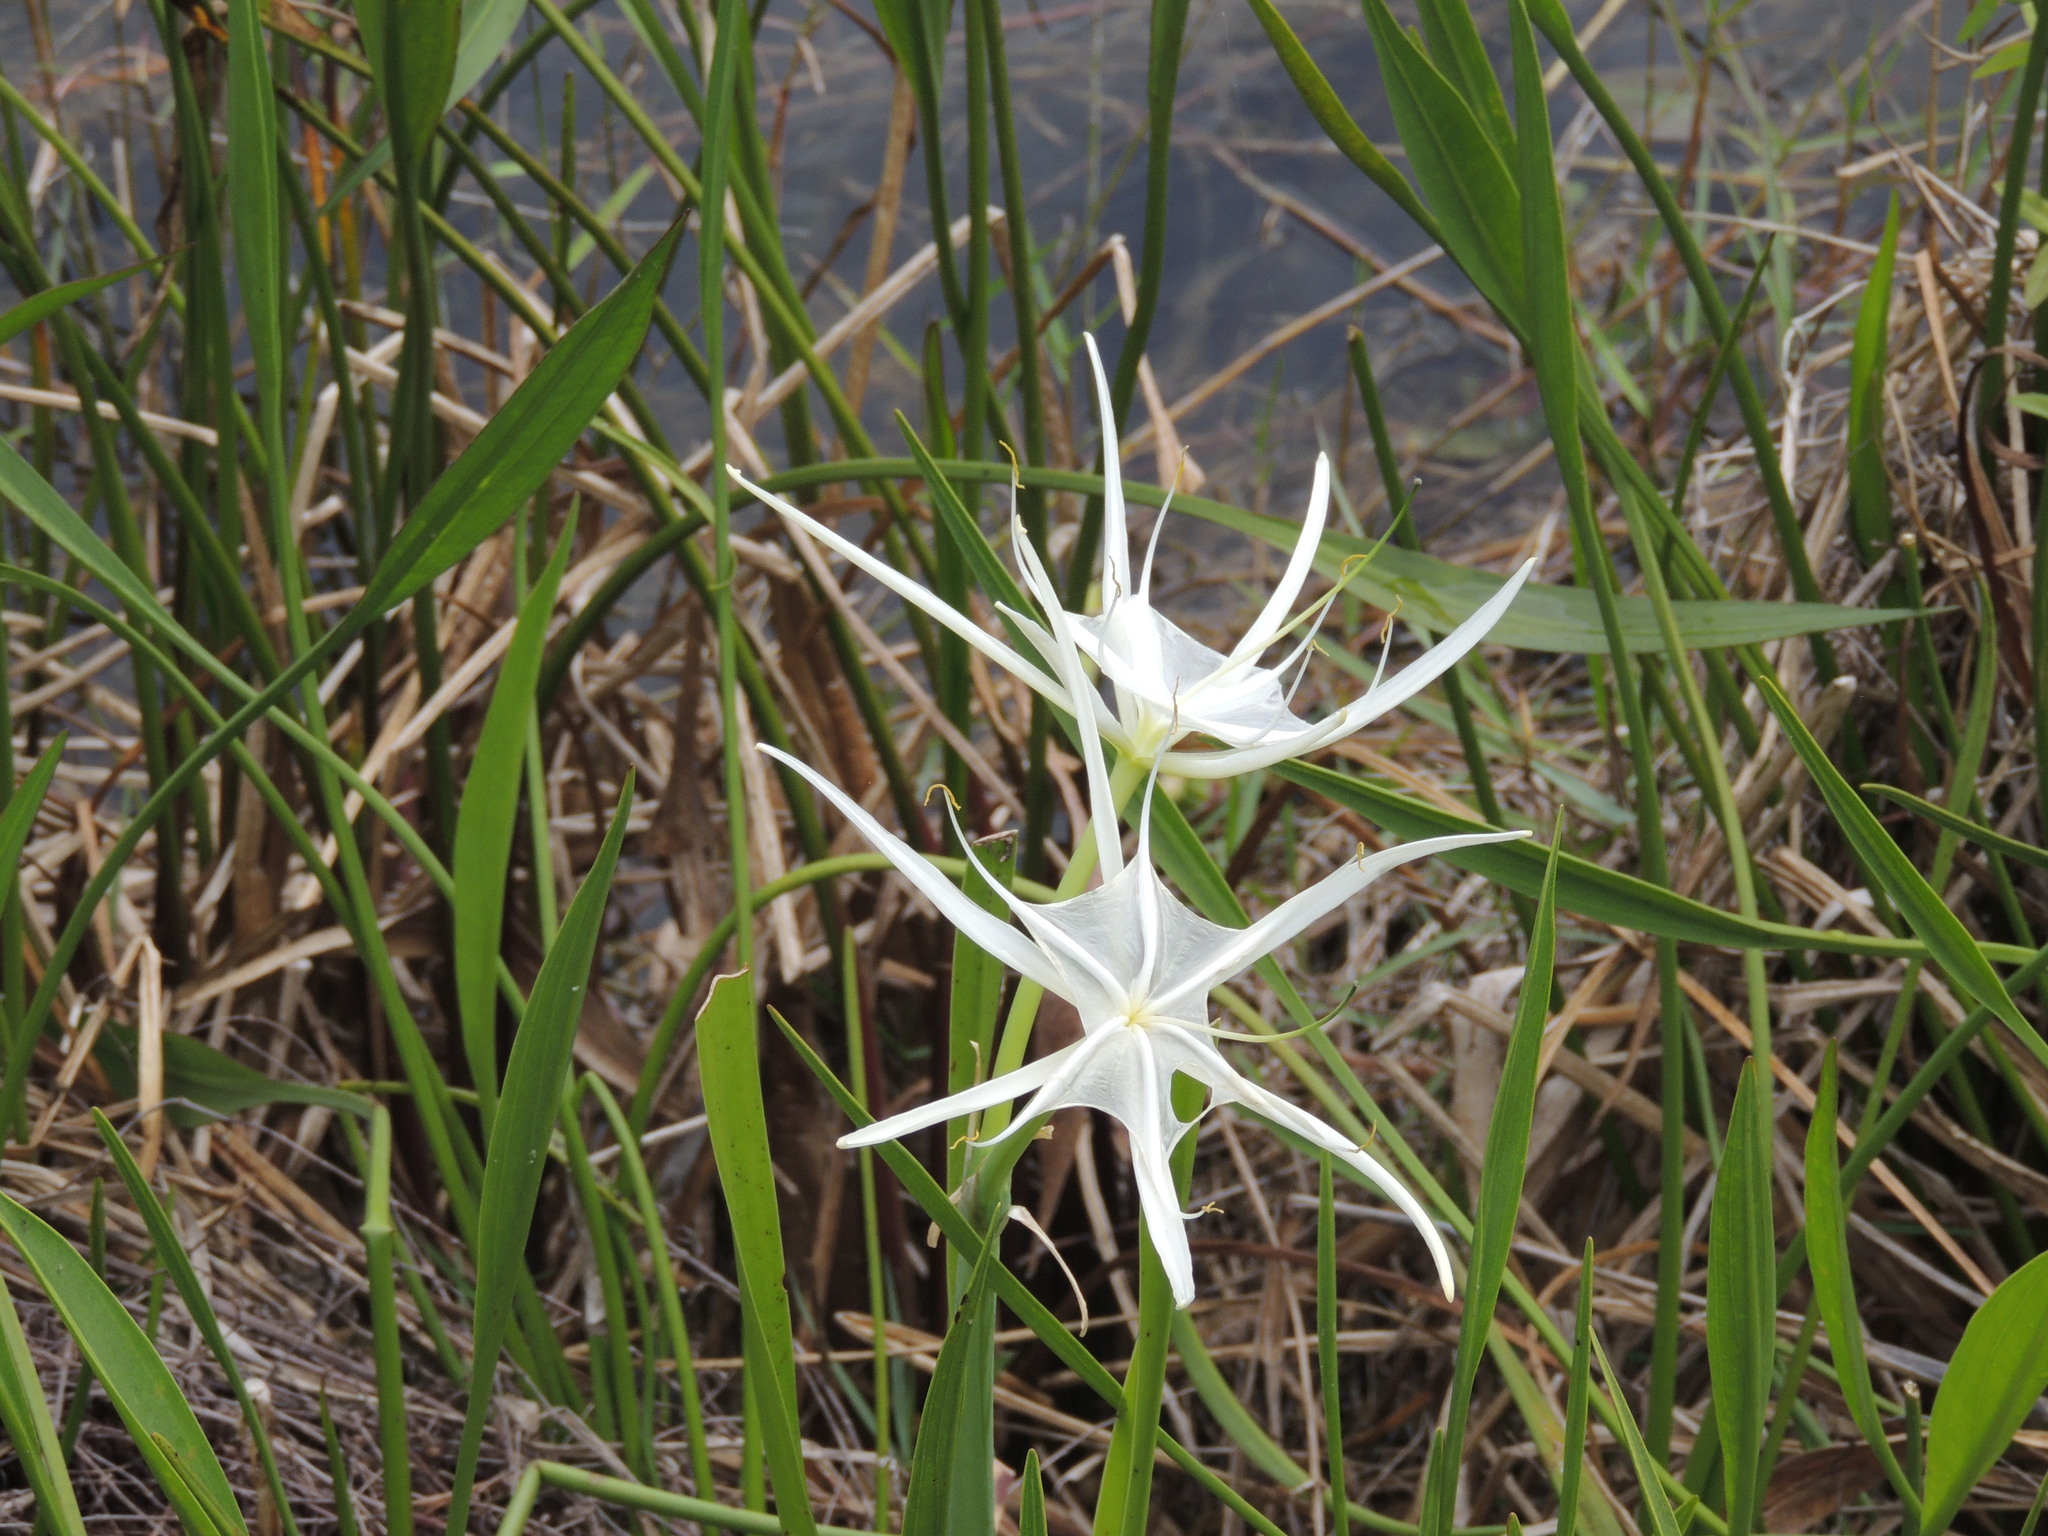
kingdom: Plantae
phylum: Tracheophyta
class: Liliopsida
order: Asparagales
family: Amaryllidaceae
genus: Hymenocallis
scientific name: Hymenocallis tridentata
